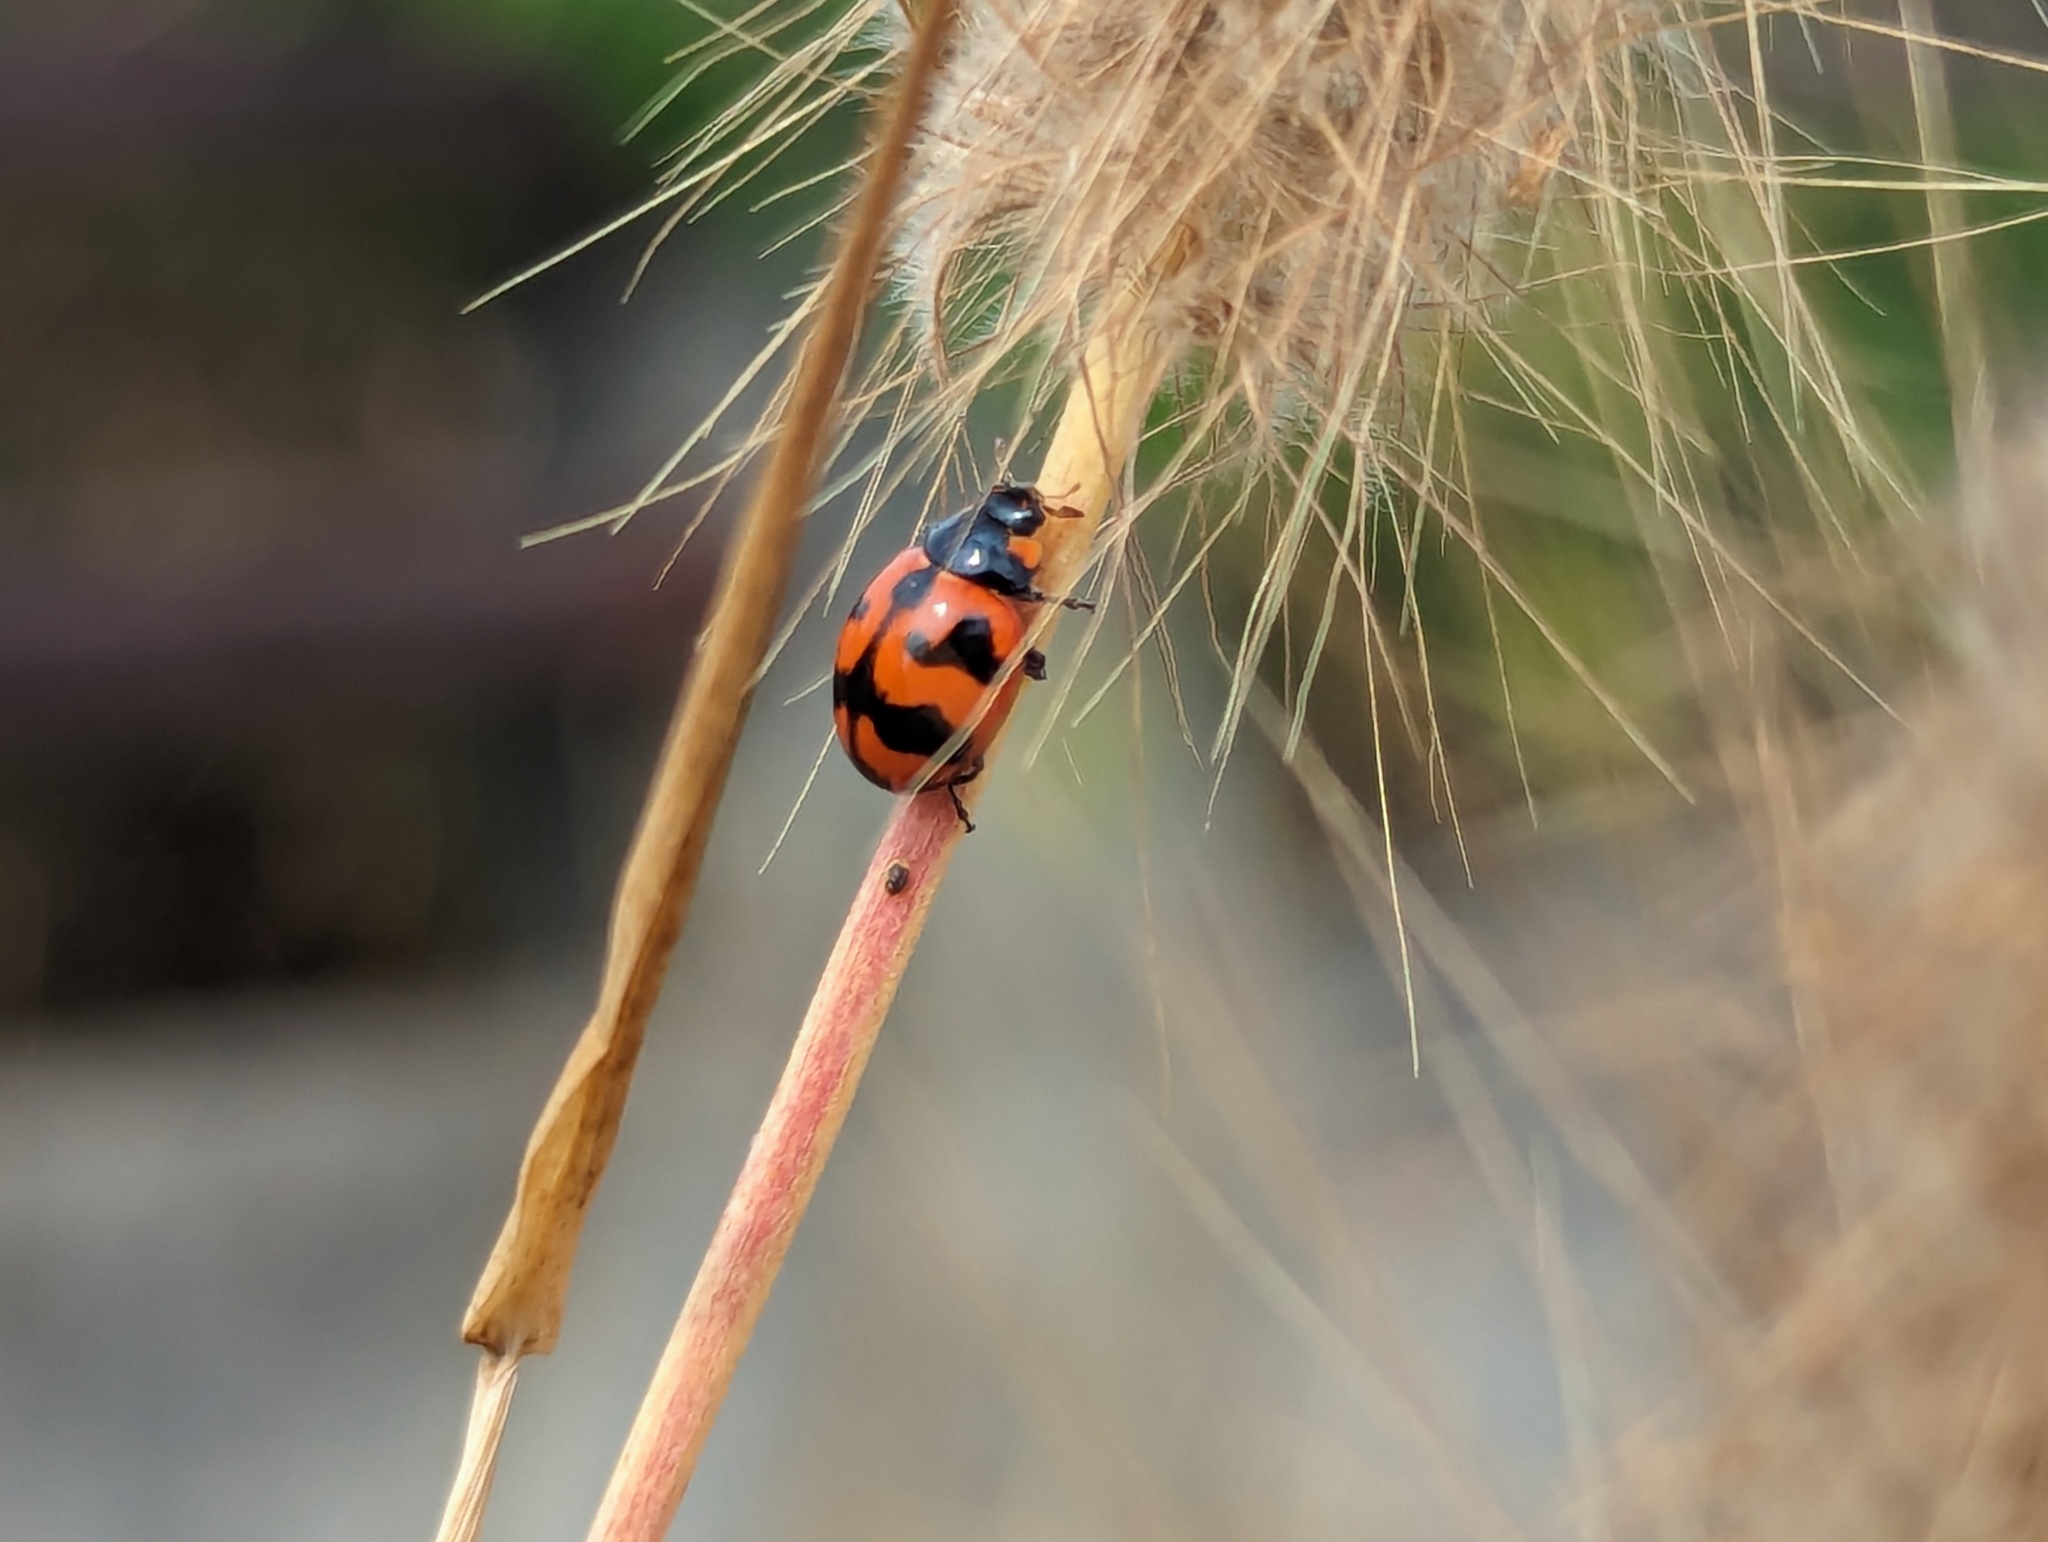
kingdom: Animalia
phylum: Arthropoda
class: Insecta
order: Coleoptera
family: Coccinellidae
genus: Coccinella
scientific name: Coccinella transversalis
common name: Transverse lady beetle
